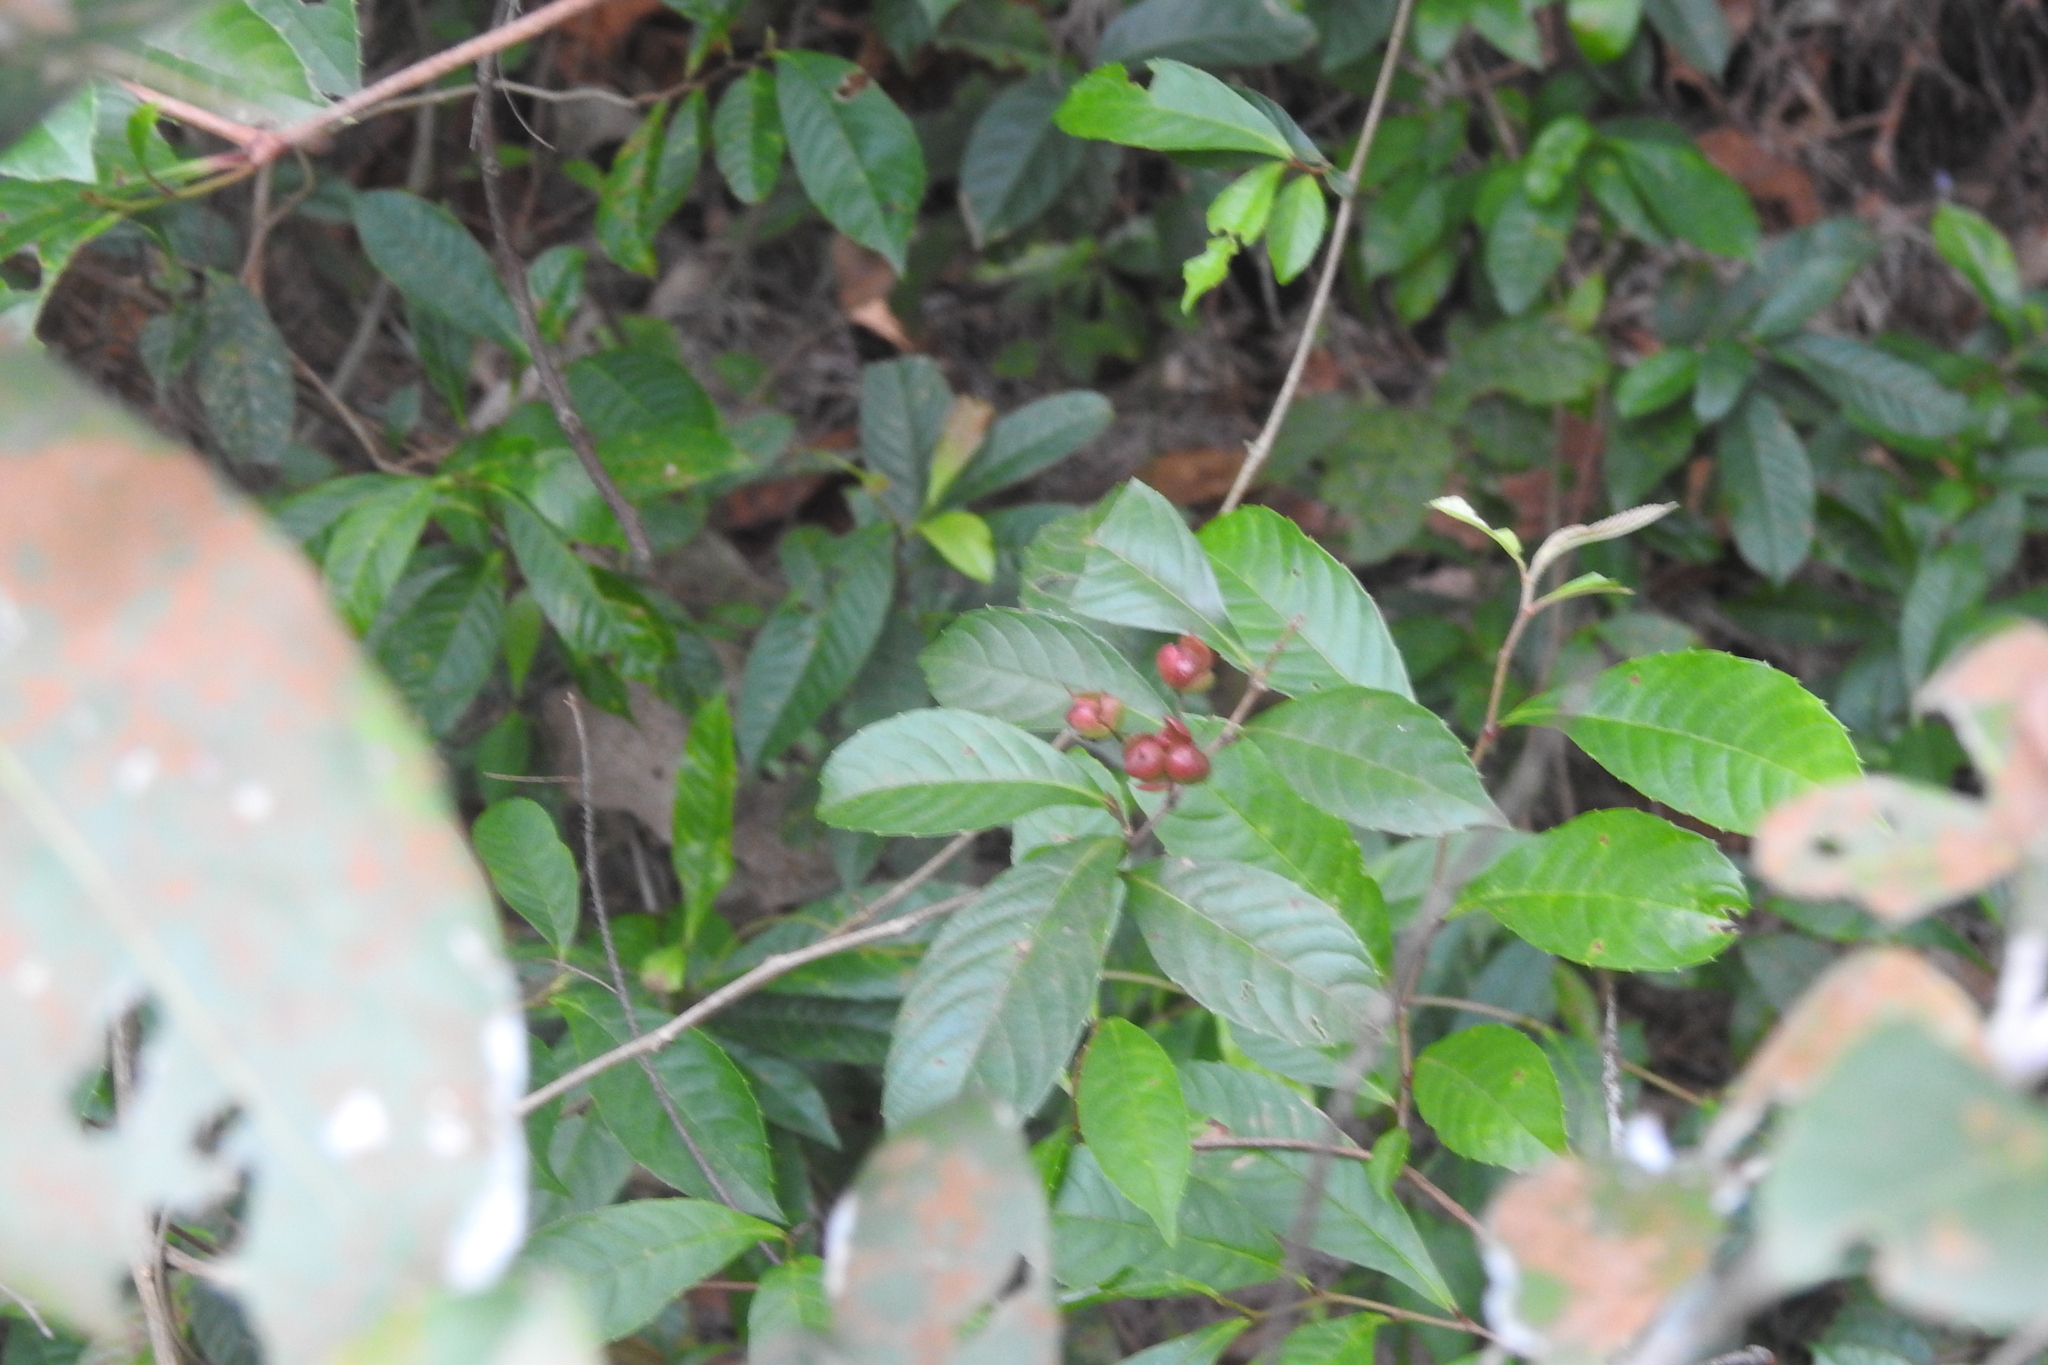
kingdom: Plantae
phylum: Tracheophyta
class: Magnoliopsida
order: Dilleniales
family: Dilleniaceae
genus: Tetracera
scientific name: Tetracera indica
